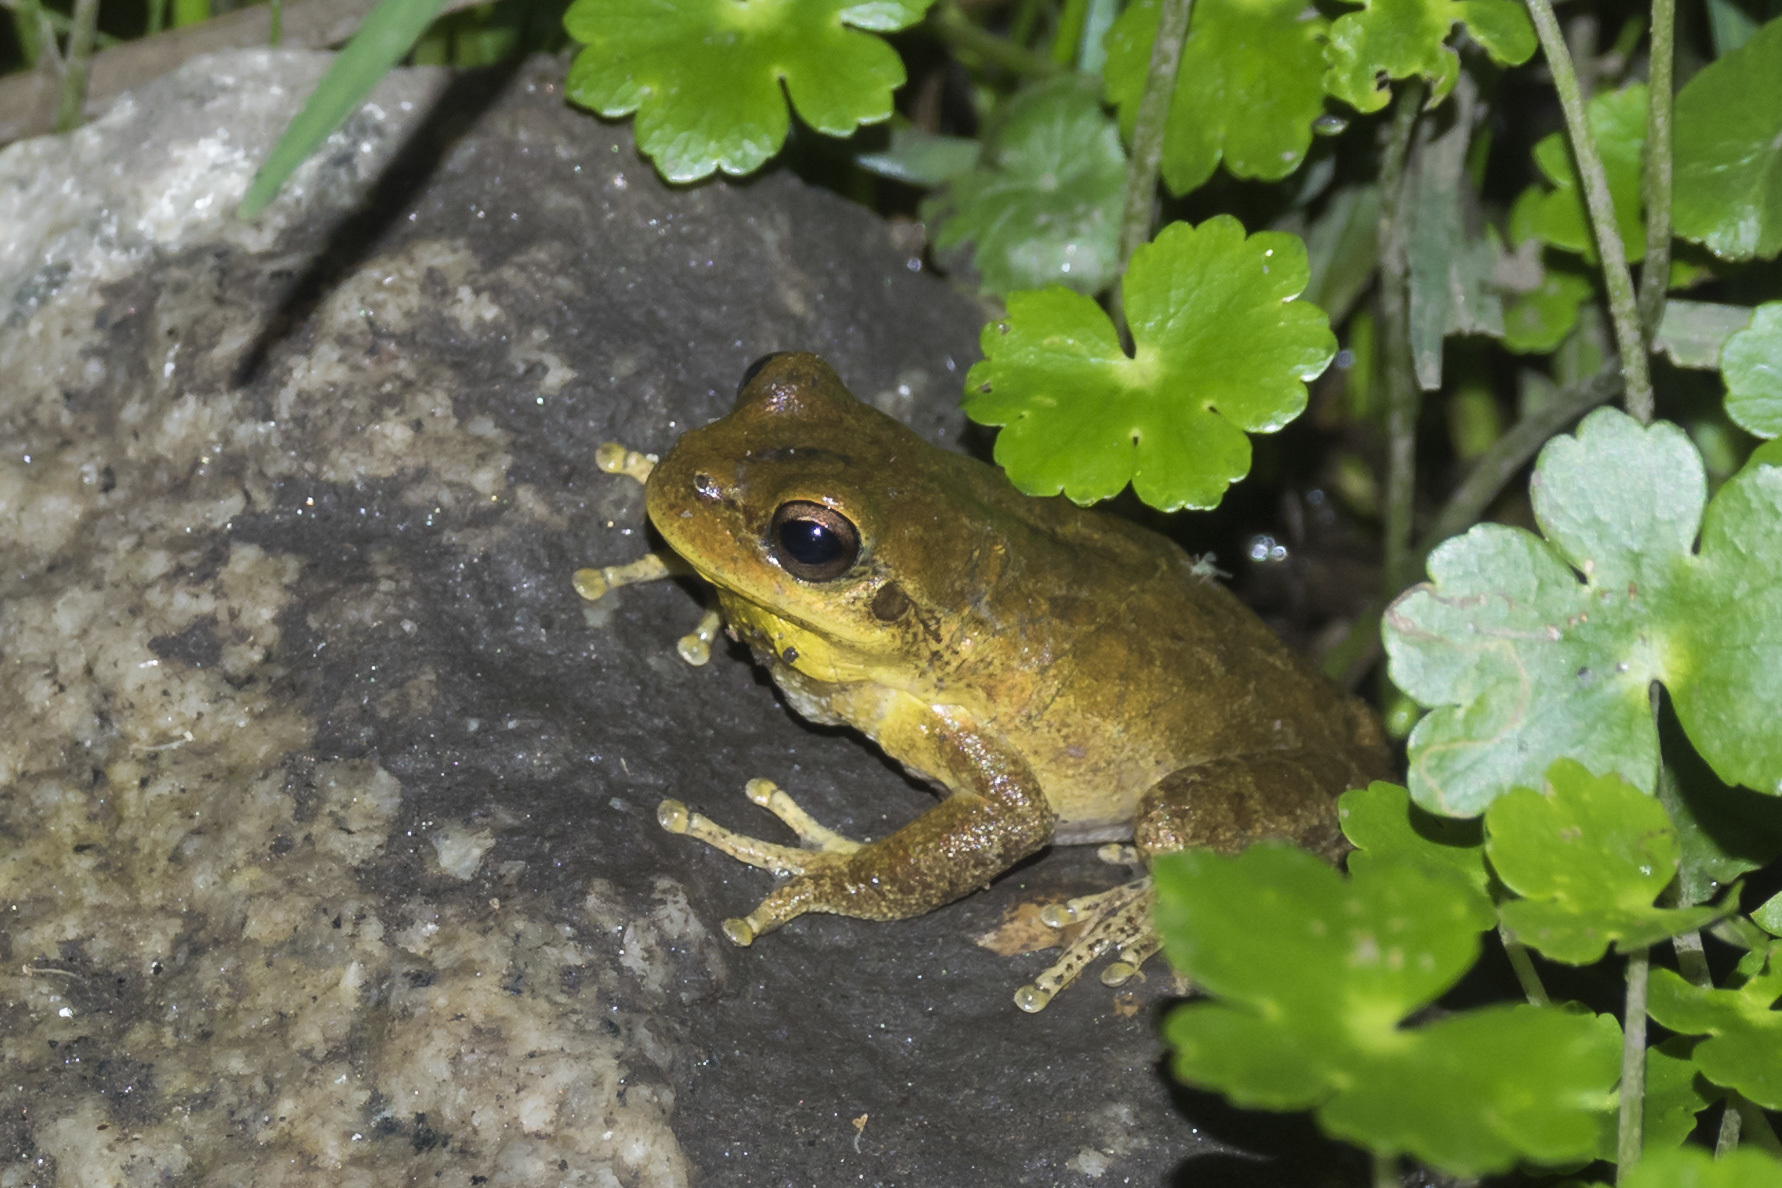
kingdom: Animalia
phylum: Chordata
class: Amphibia
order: Anura
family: Hylidae
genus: Boana
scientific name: Boana cordobae
